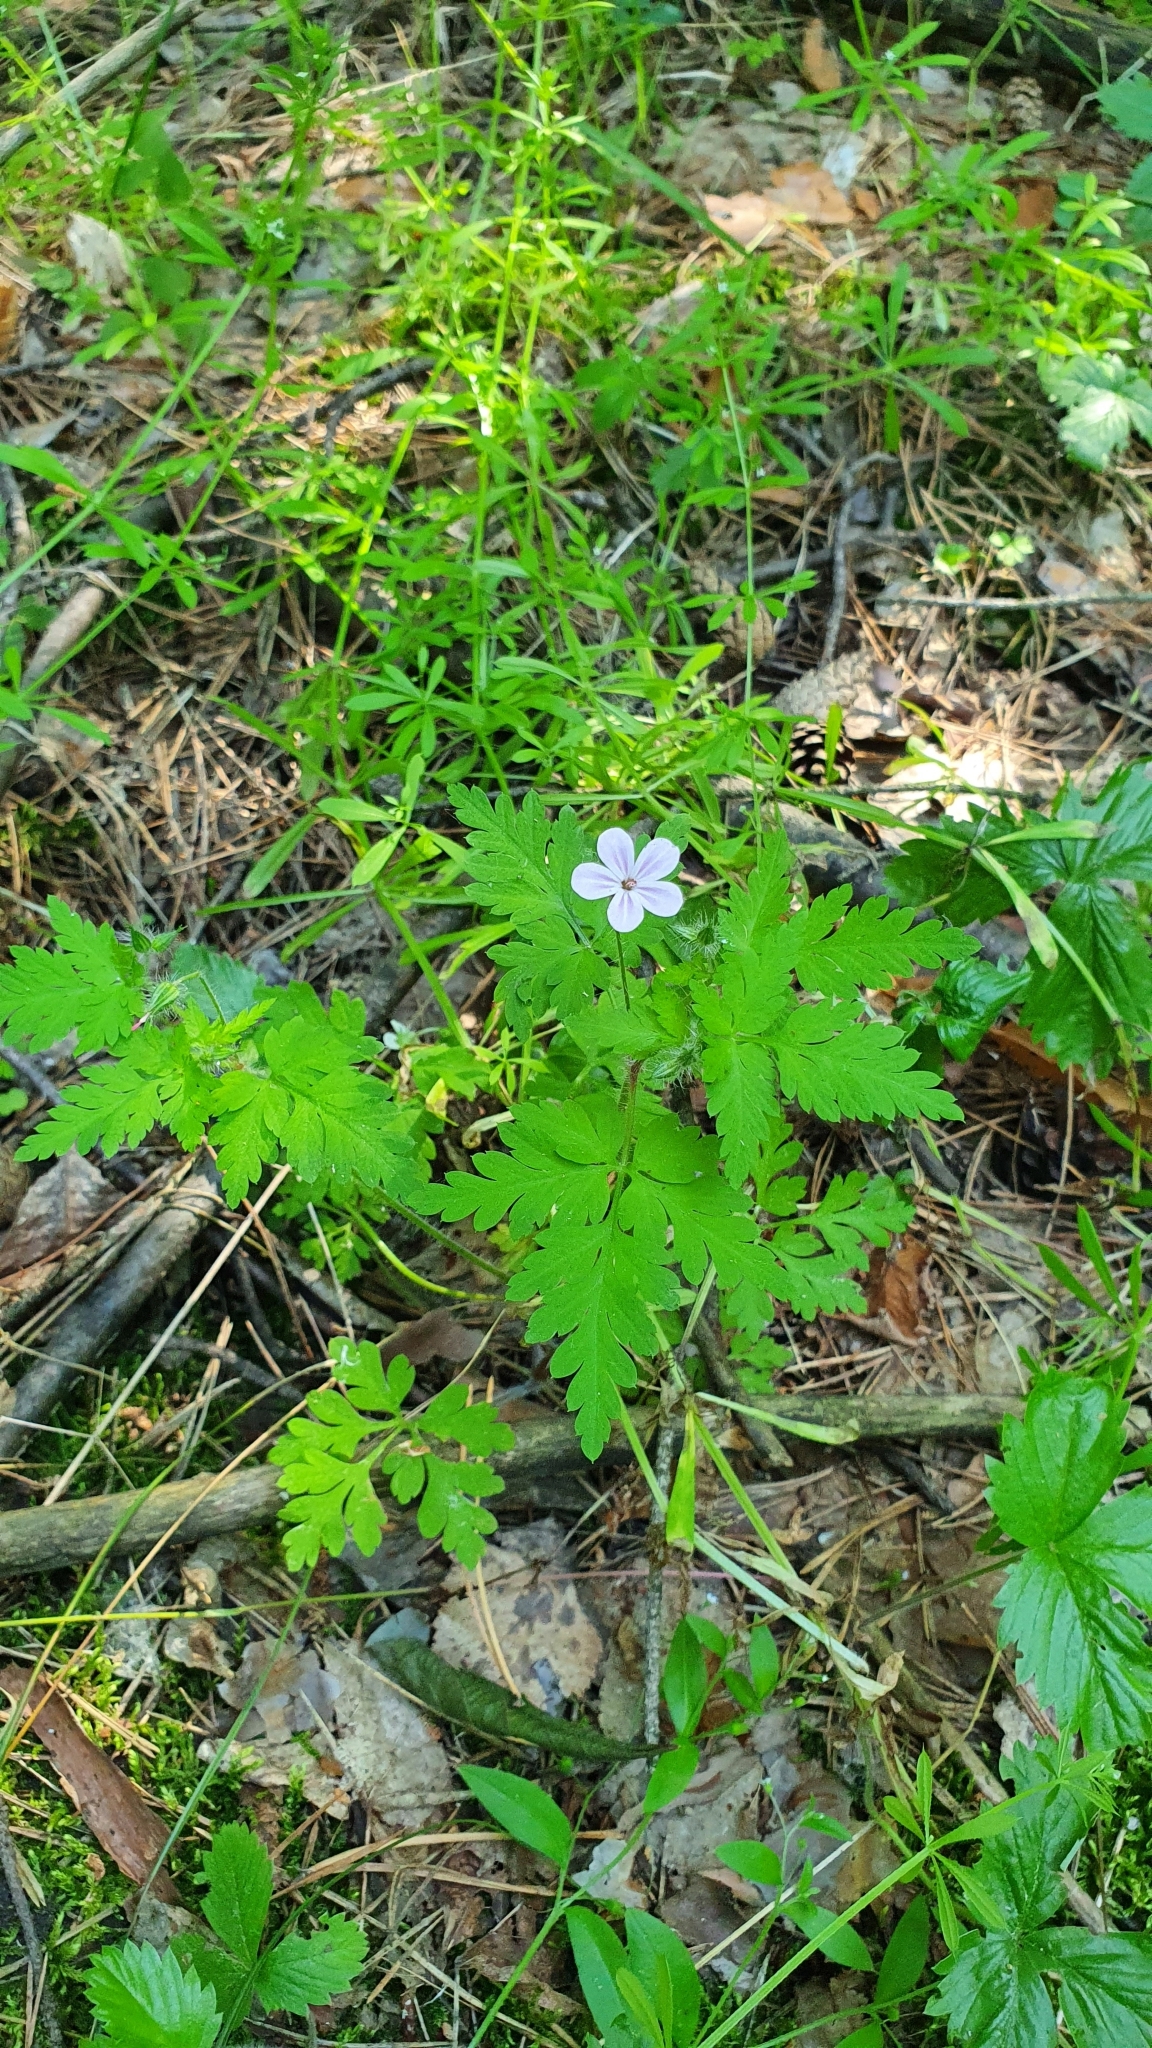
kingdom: Plantae
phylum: Tracheophyta
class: Magnoliopsida
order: Geraniales
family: Geraniaceae
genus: Geranium
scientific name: Geranium robertianum
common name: Herb-robert
